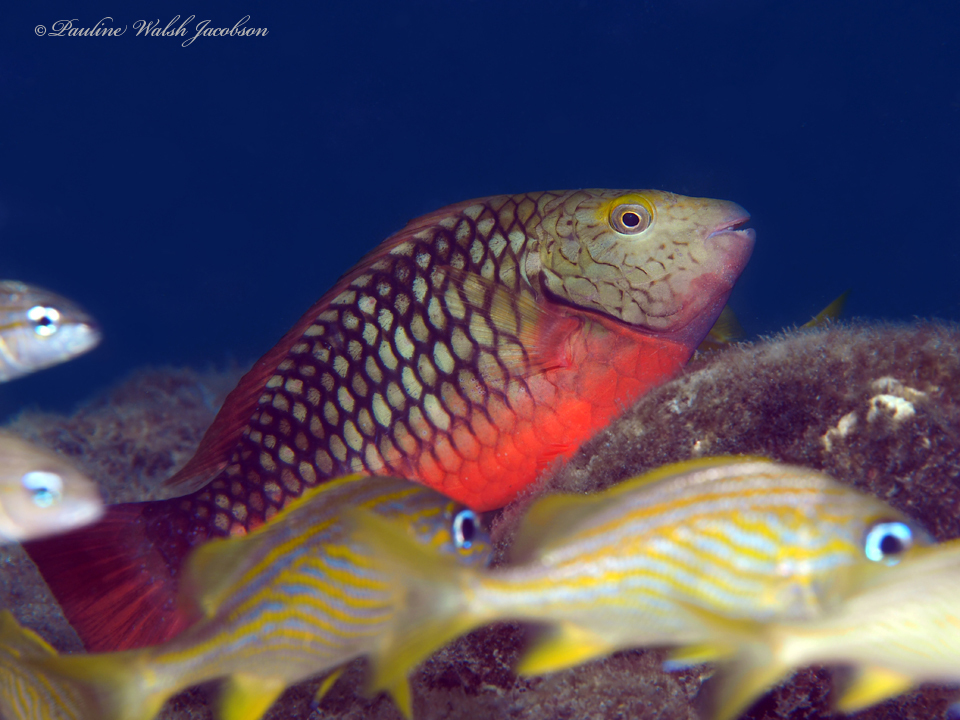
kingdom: Animalia
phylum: Chordata
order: Perciformes
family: Scaridae
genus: Sparisoma
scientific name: Sparisoma viride
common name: Stoplight parrotfish
